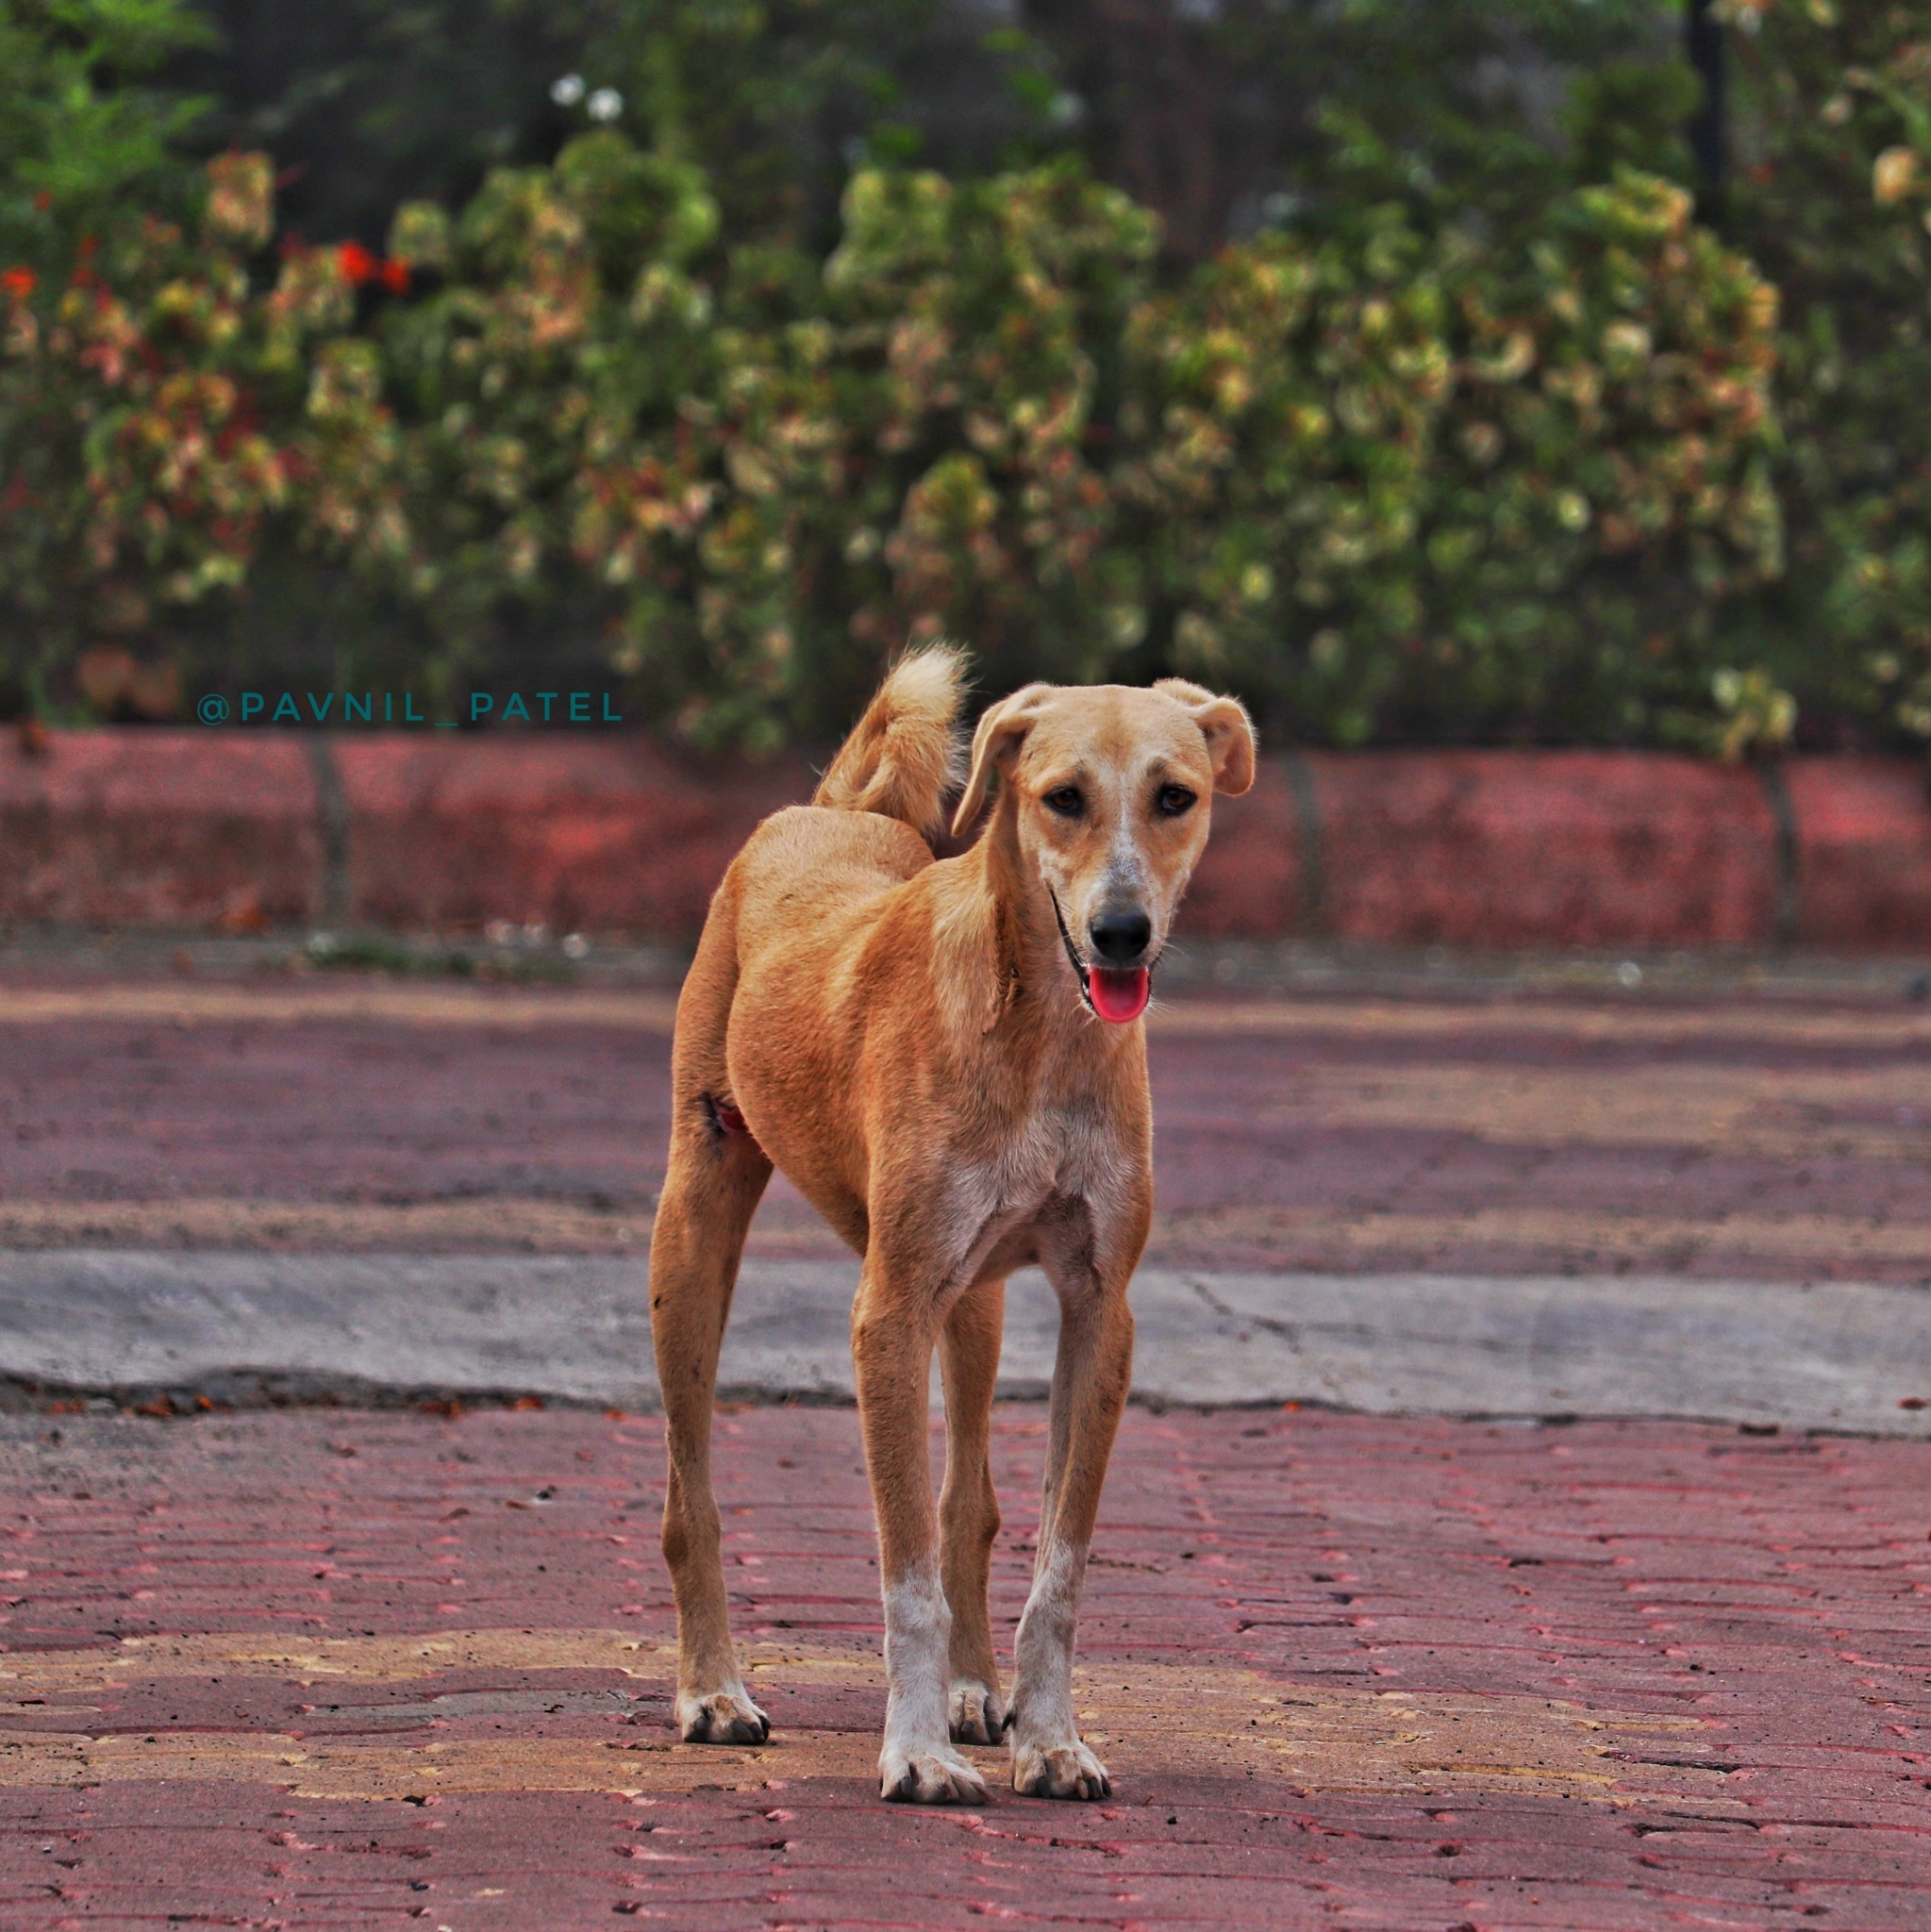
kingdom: Animalia
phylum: Chordata
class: Mammalia
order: Carnivora
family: Canidae
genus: Canis
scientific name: Canis lupus
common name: Gray wolf
